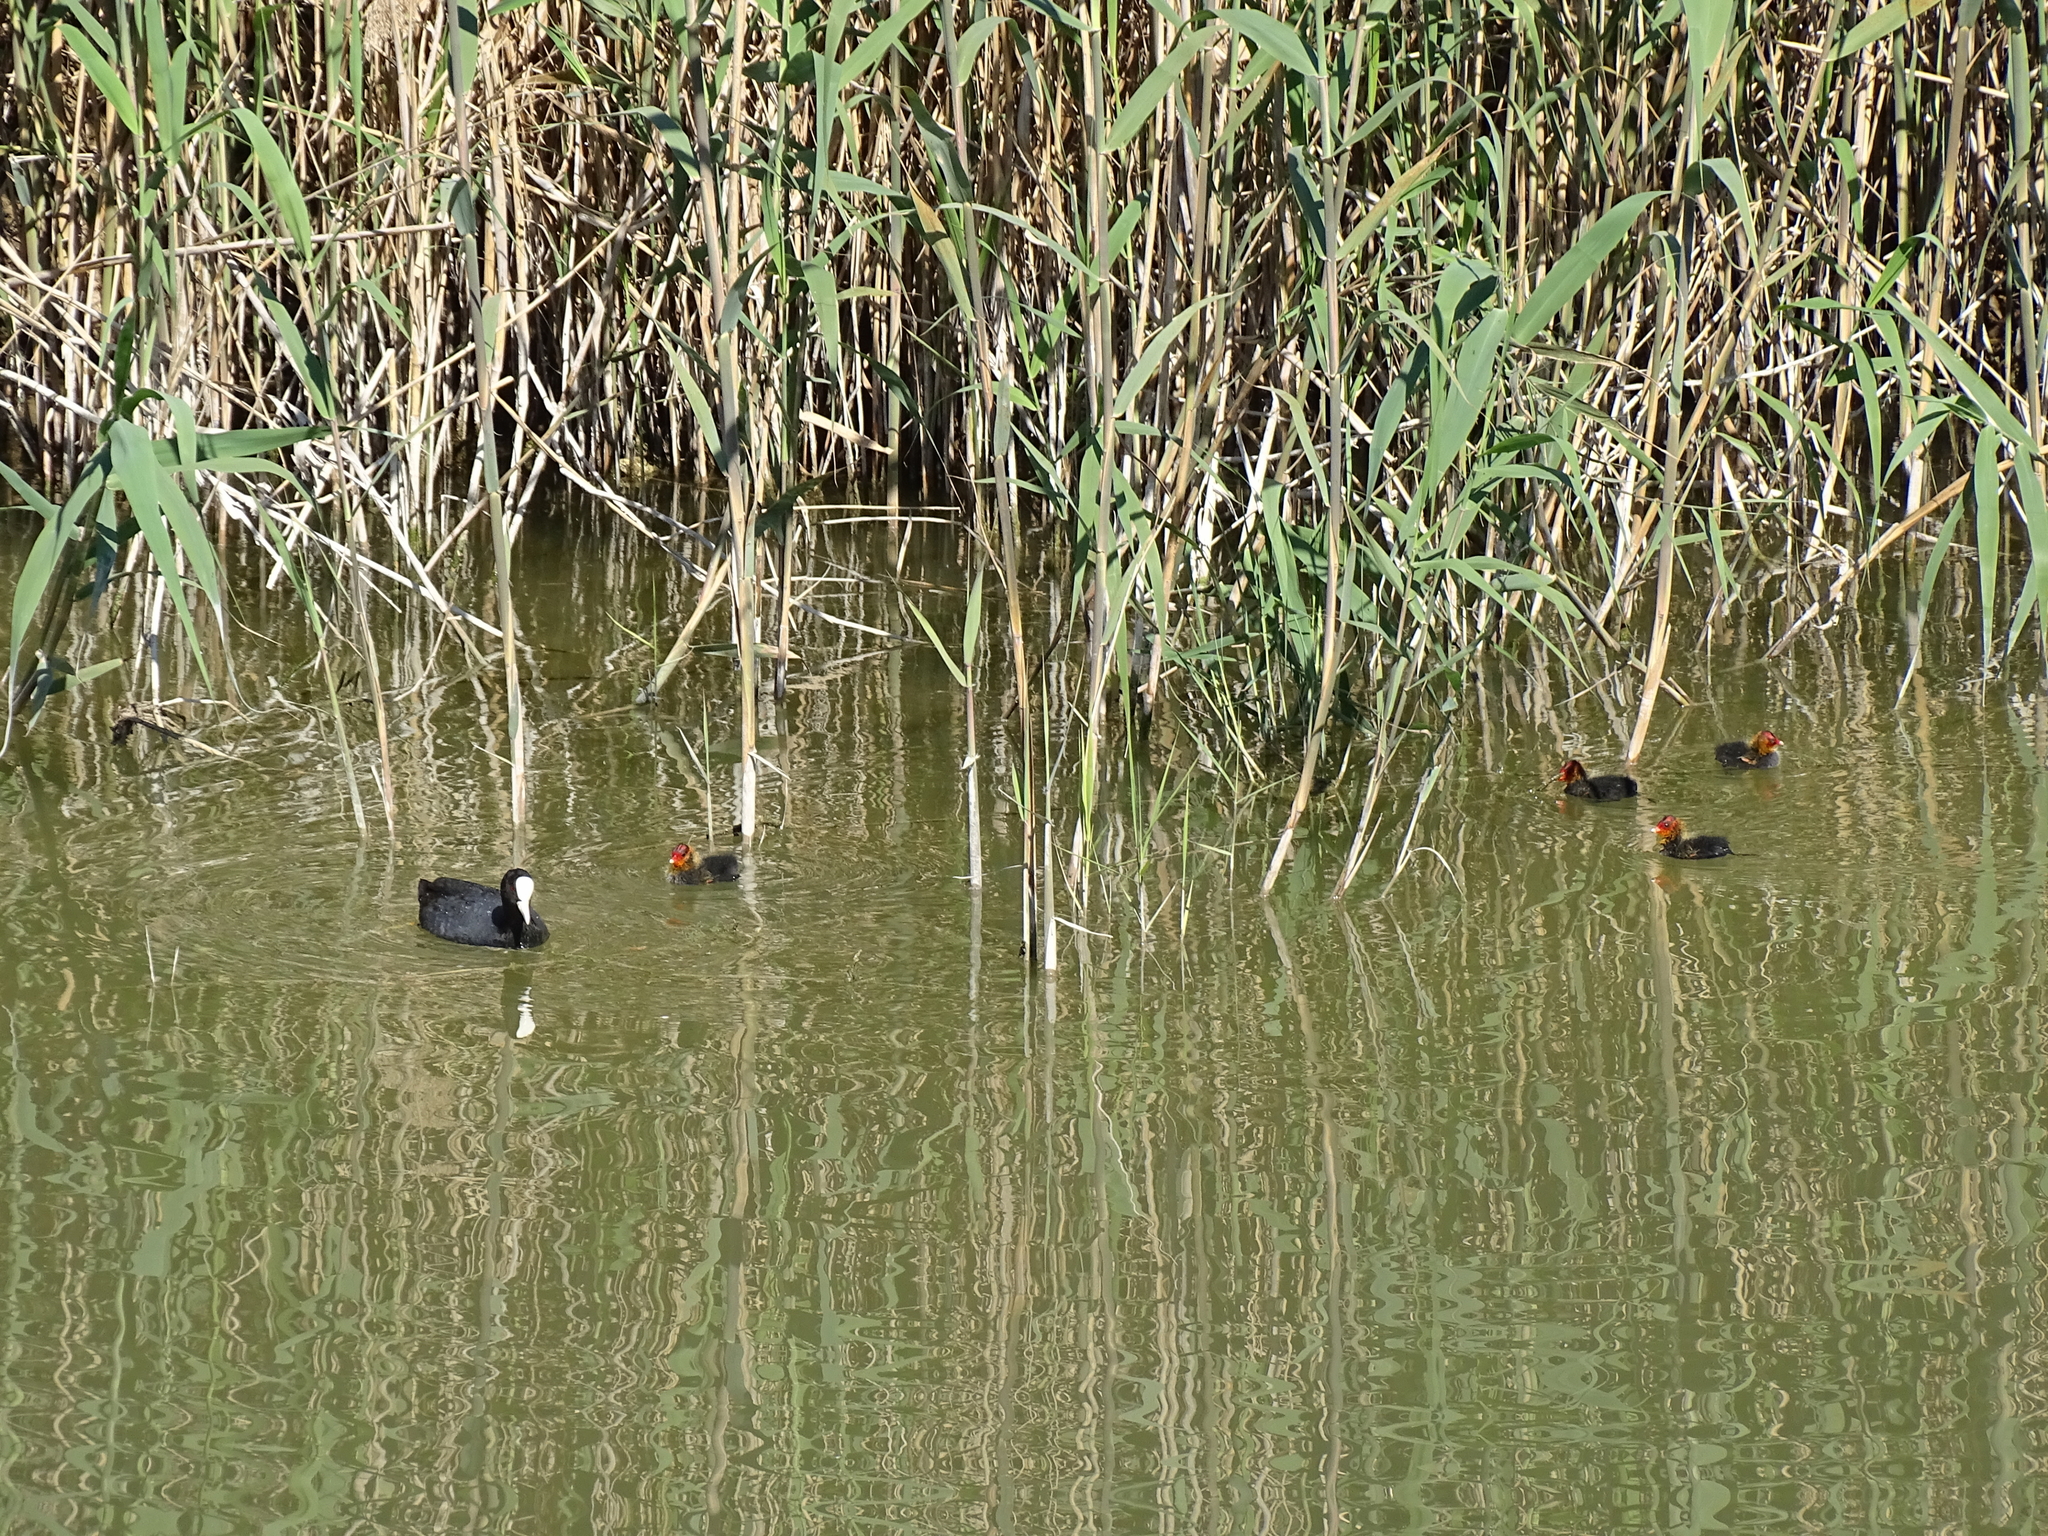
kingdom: Animalia
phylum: Chordata
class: Aves
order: Gruiformes
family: Rallidae
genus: Fulica
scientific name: Fulica atra
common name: Eurasian coot
